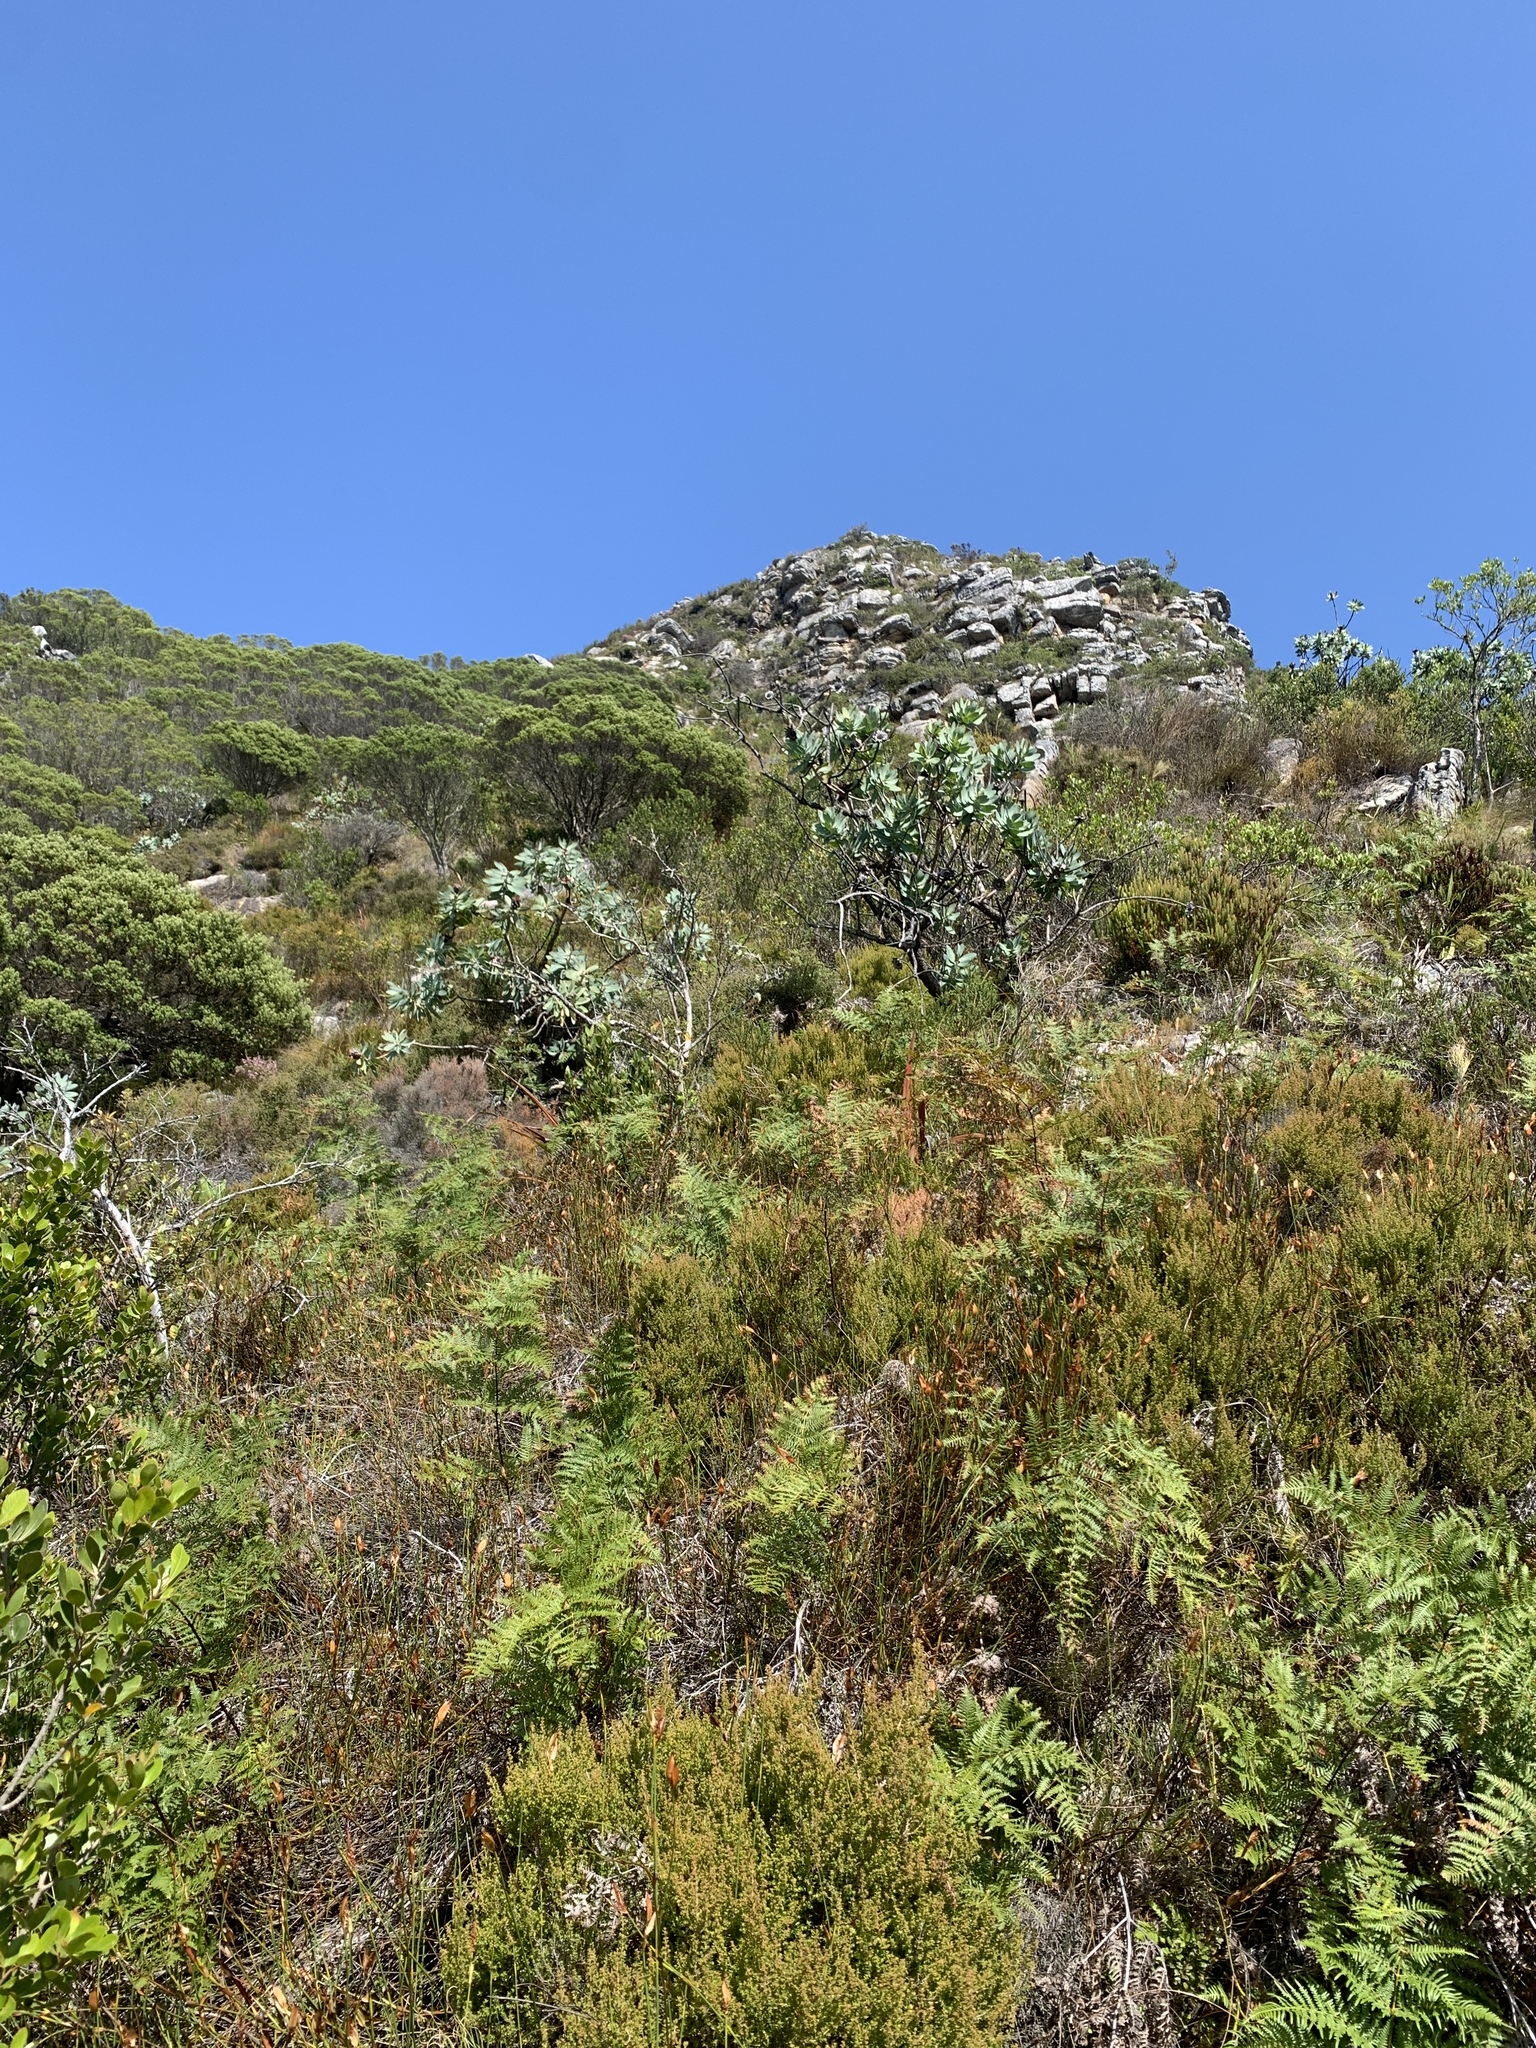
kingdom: Plantae
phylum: Tracheophyta
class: Magnoliopsida
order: Proteales
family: Proteaceae
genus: Protea
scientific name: Protea nitida
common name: Tree protea
